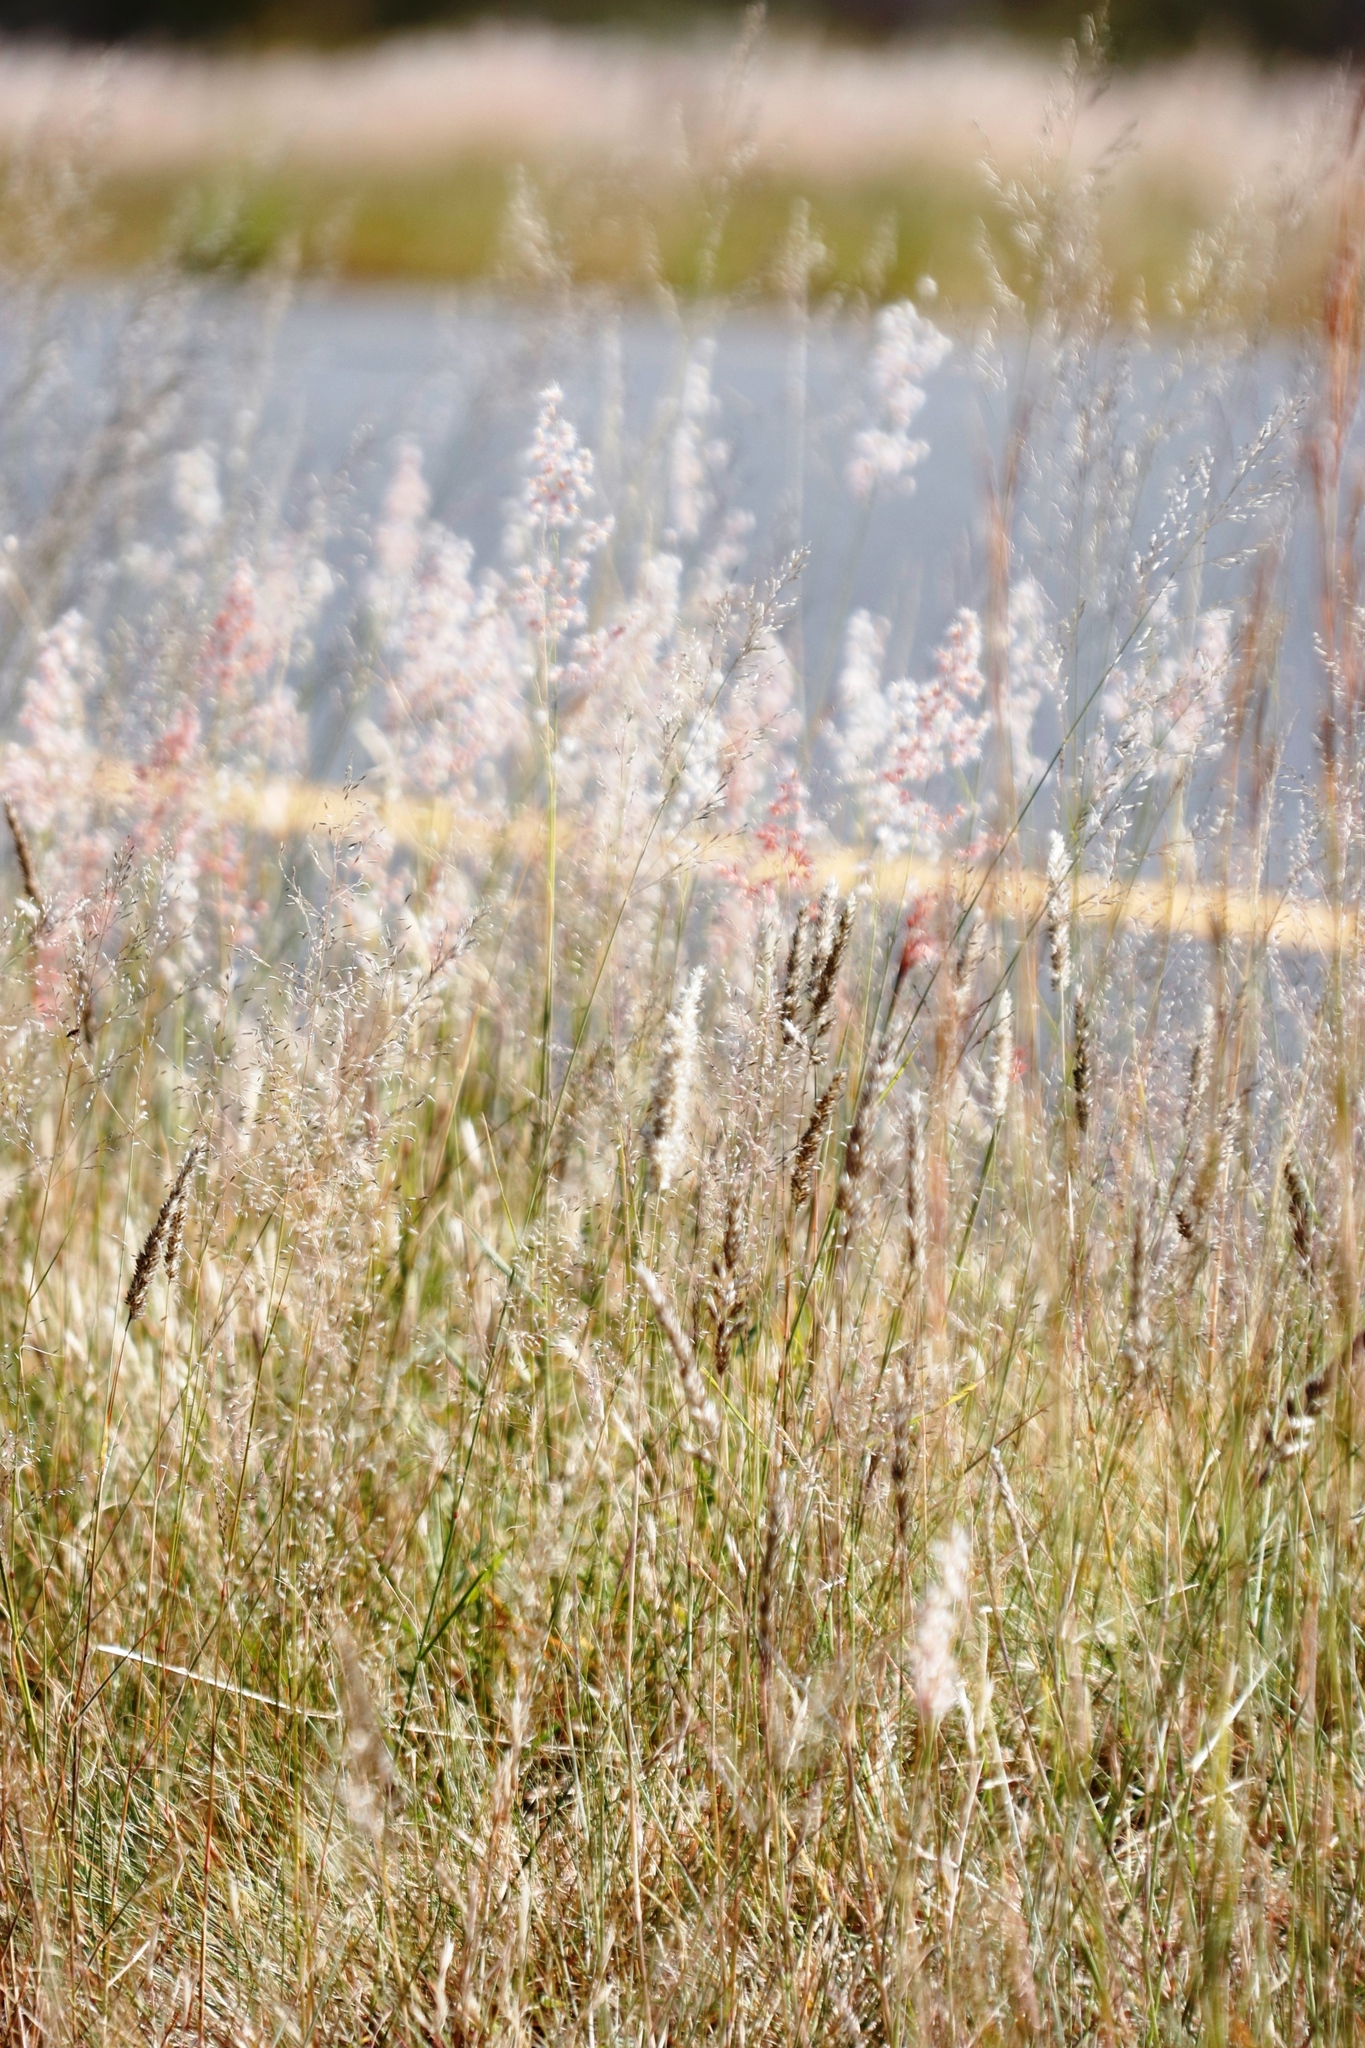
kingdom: Plantae
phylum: Tracheophyta
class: Liliopsida
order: Poales
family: Poaceae
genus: Melinis
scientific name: Melinis repens
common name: Rose natal grass
